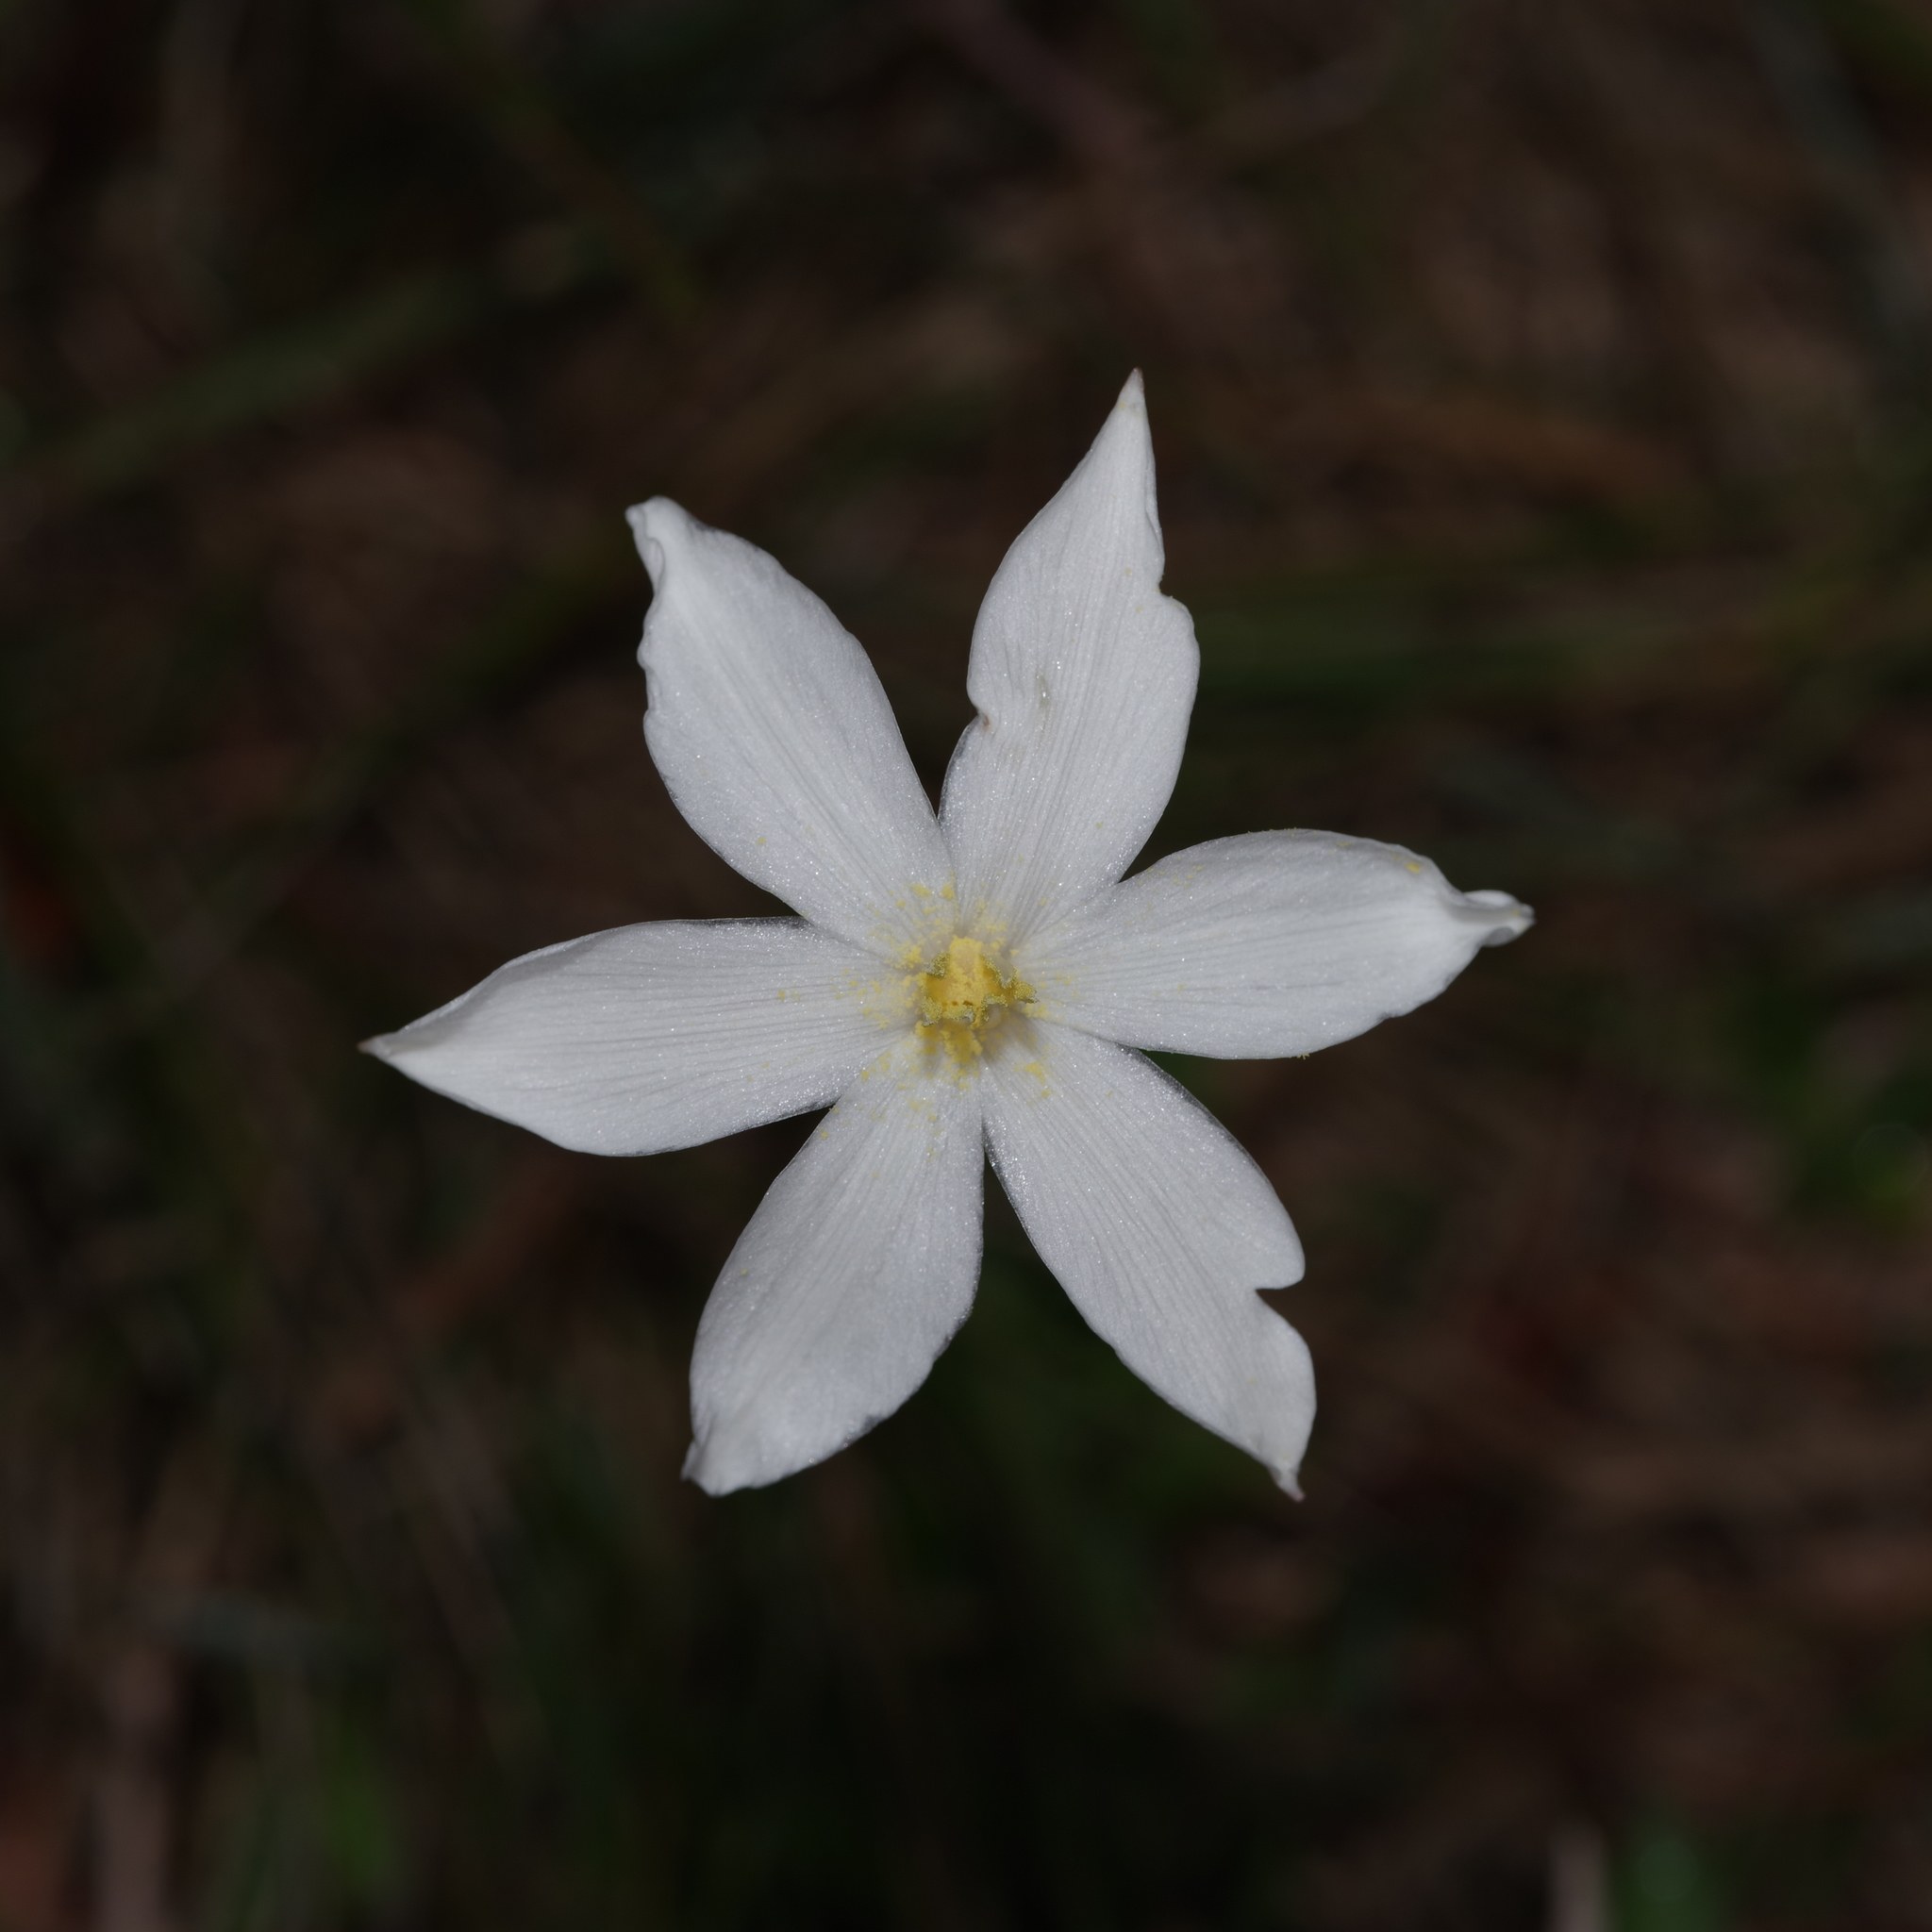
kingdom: Plantae
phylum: Tracheophyta
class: Liliopsida
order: Asparagales
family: Amaryllidaceae
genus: Zephyranthes
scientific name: Zephyranthes chlorosolen
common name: Evening rain-lily
